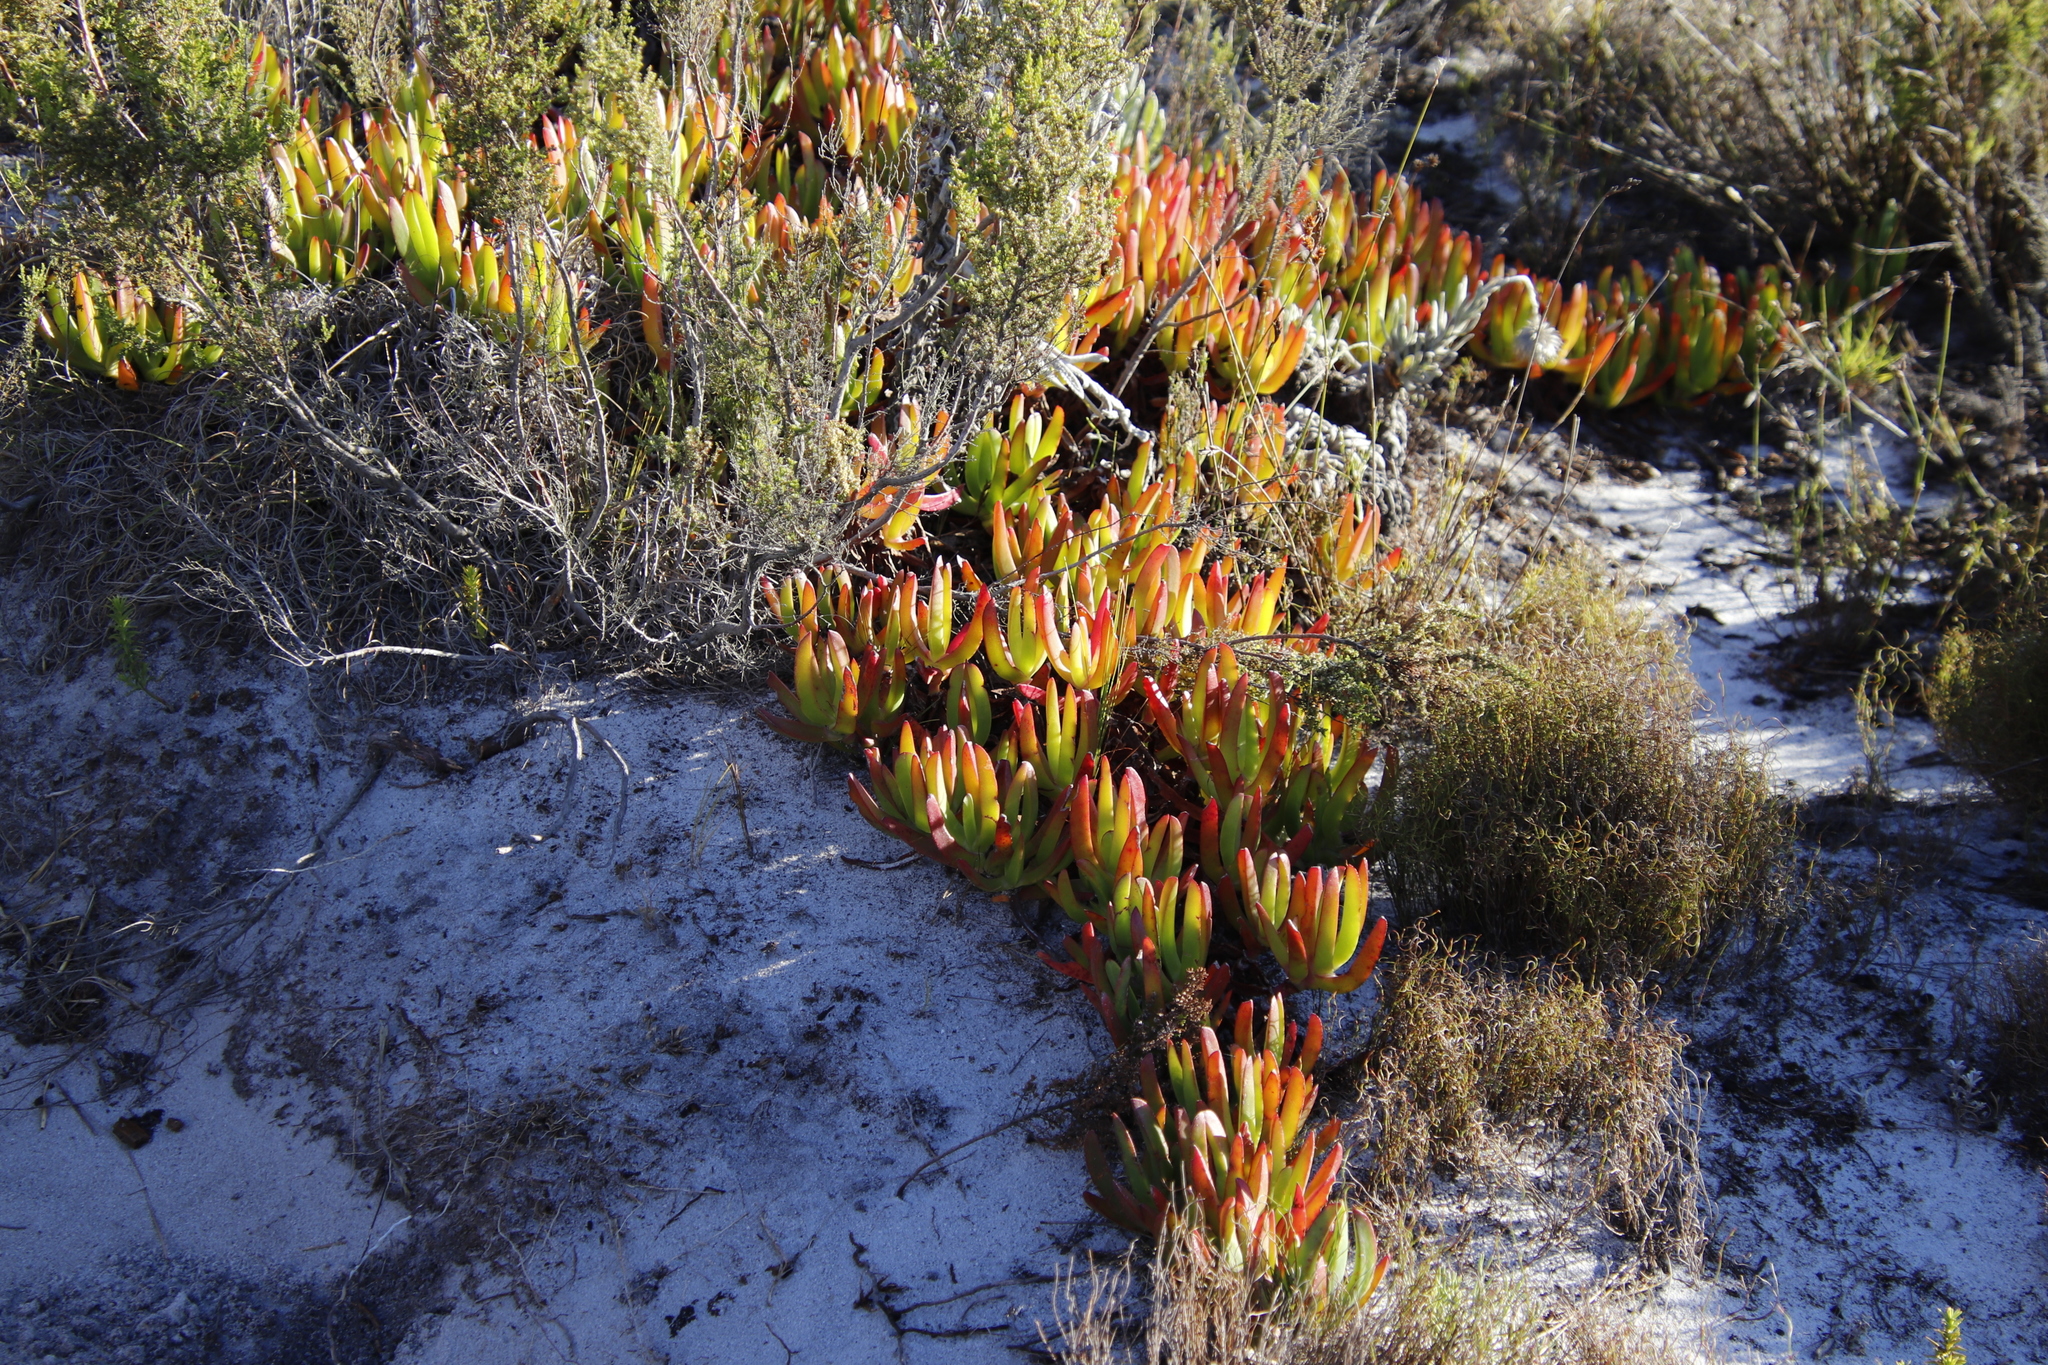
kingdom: Plantae
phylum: Tracheophyta
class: Magnoliopsida
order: Caryophyllales
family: Aizoaceae
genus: Carpobrotus
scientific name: Carpobrotus edulis
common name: Hottentot-fig
